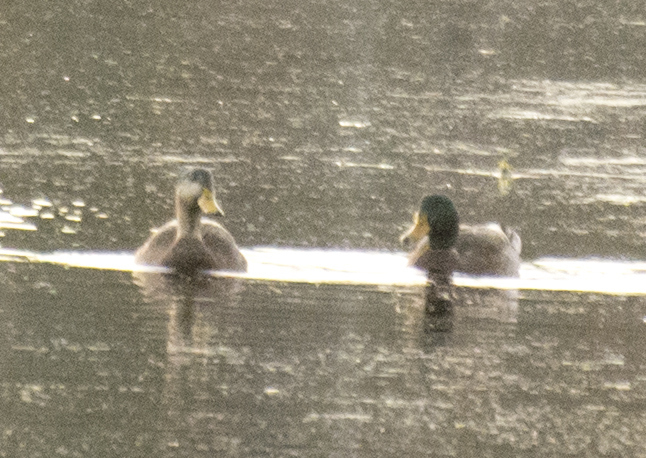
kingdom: Animalia
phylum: Chordata
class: Aves
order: Anseriformes
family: Anatidae
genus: Anas
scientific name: Anas platyrhynchos
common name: Mallard
